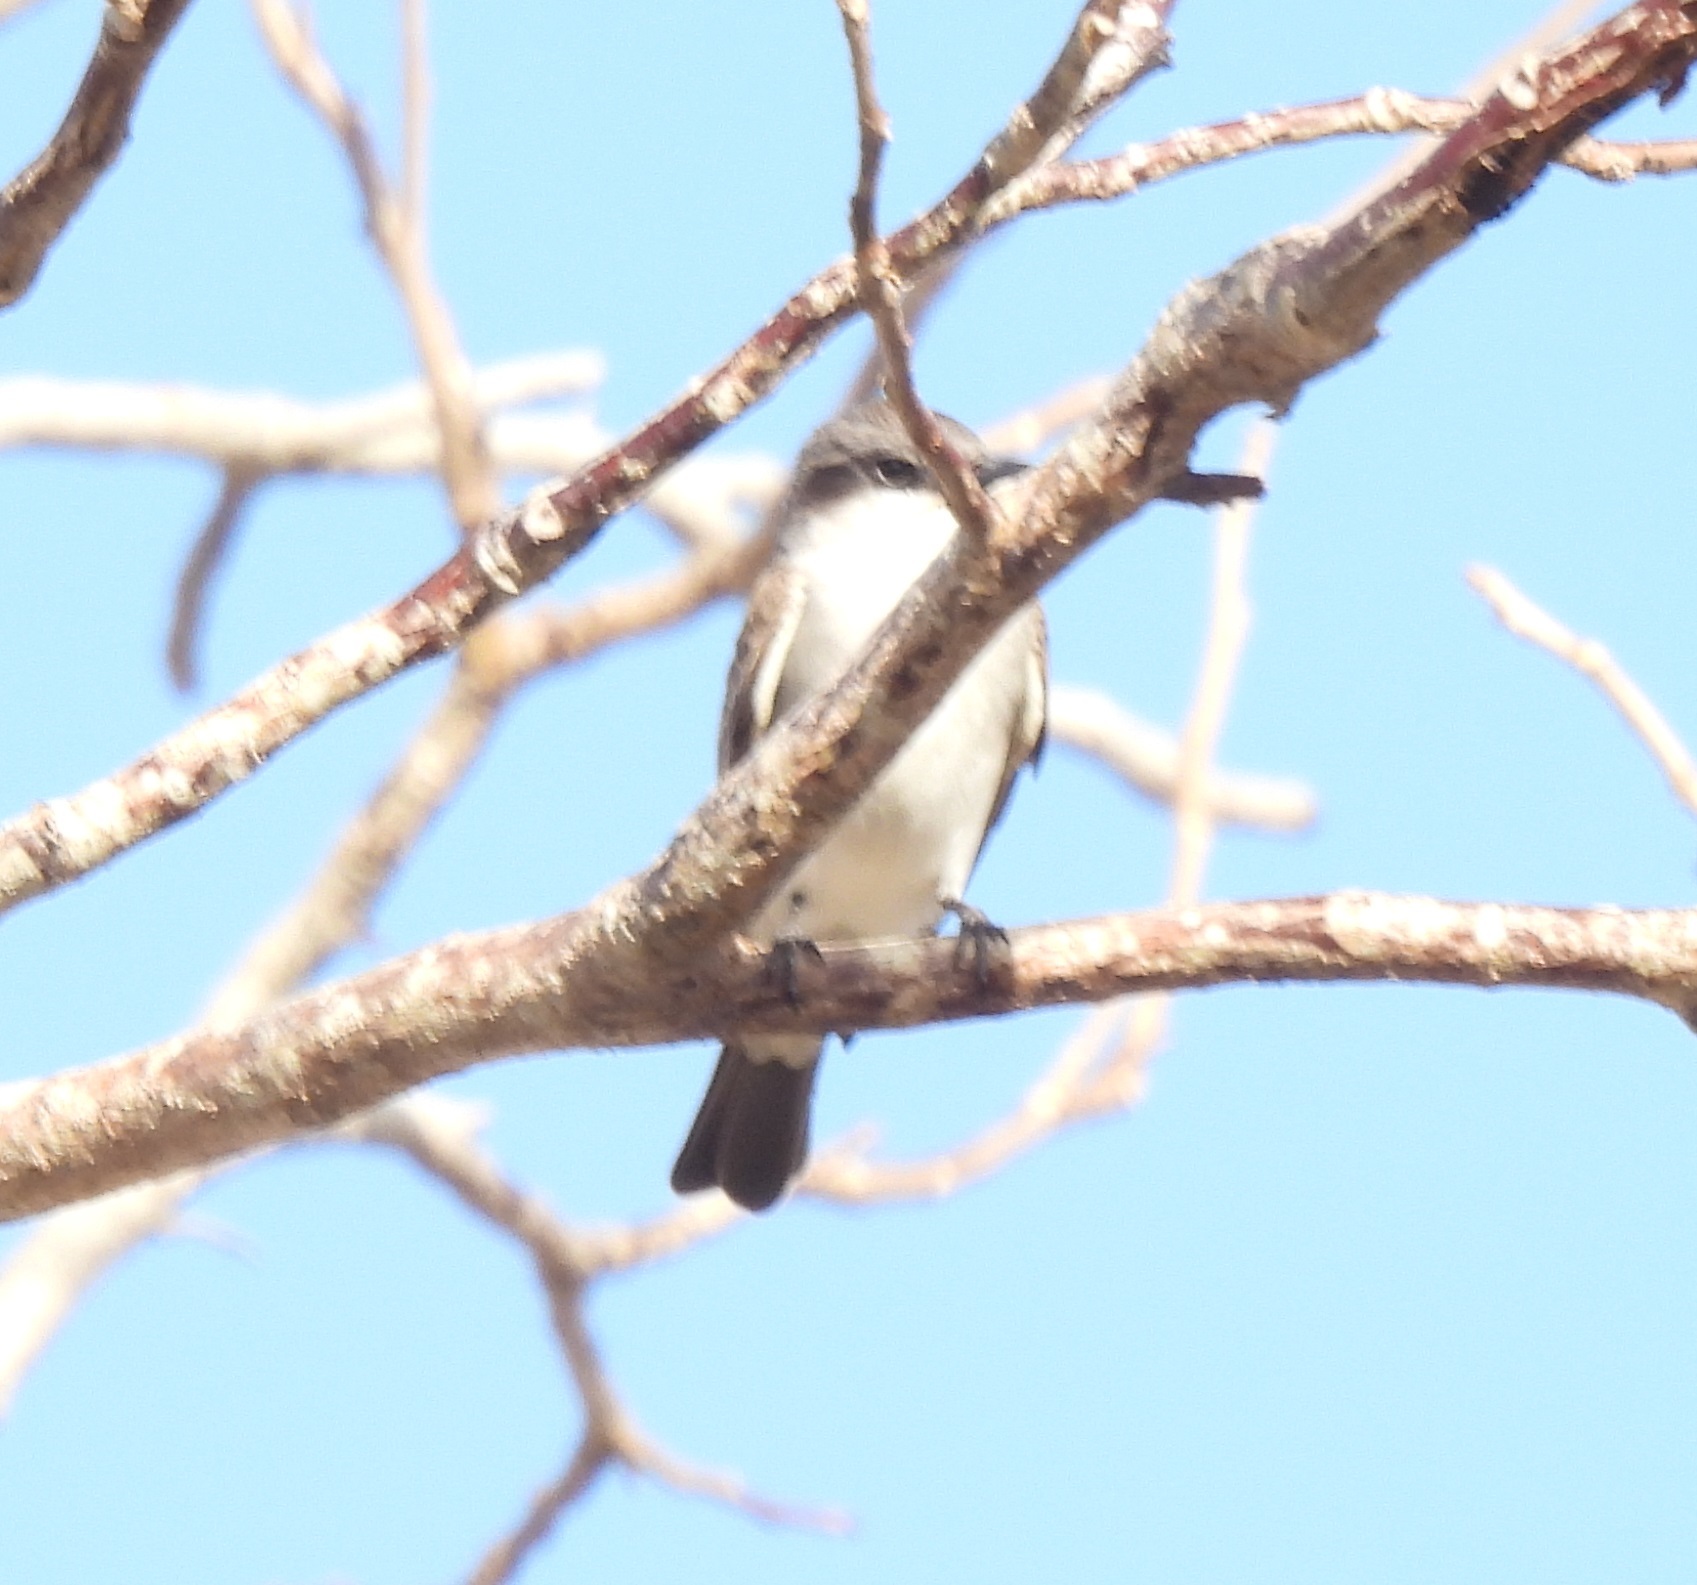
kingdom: Animalia
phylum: Chordata
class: Aves
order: Passeriformes
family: Tyrannidae
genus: Tyrannus
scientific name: Tyrannus dominicensis
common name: Gray kingbird
